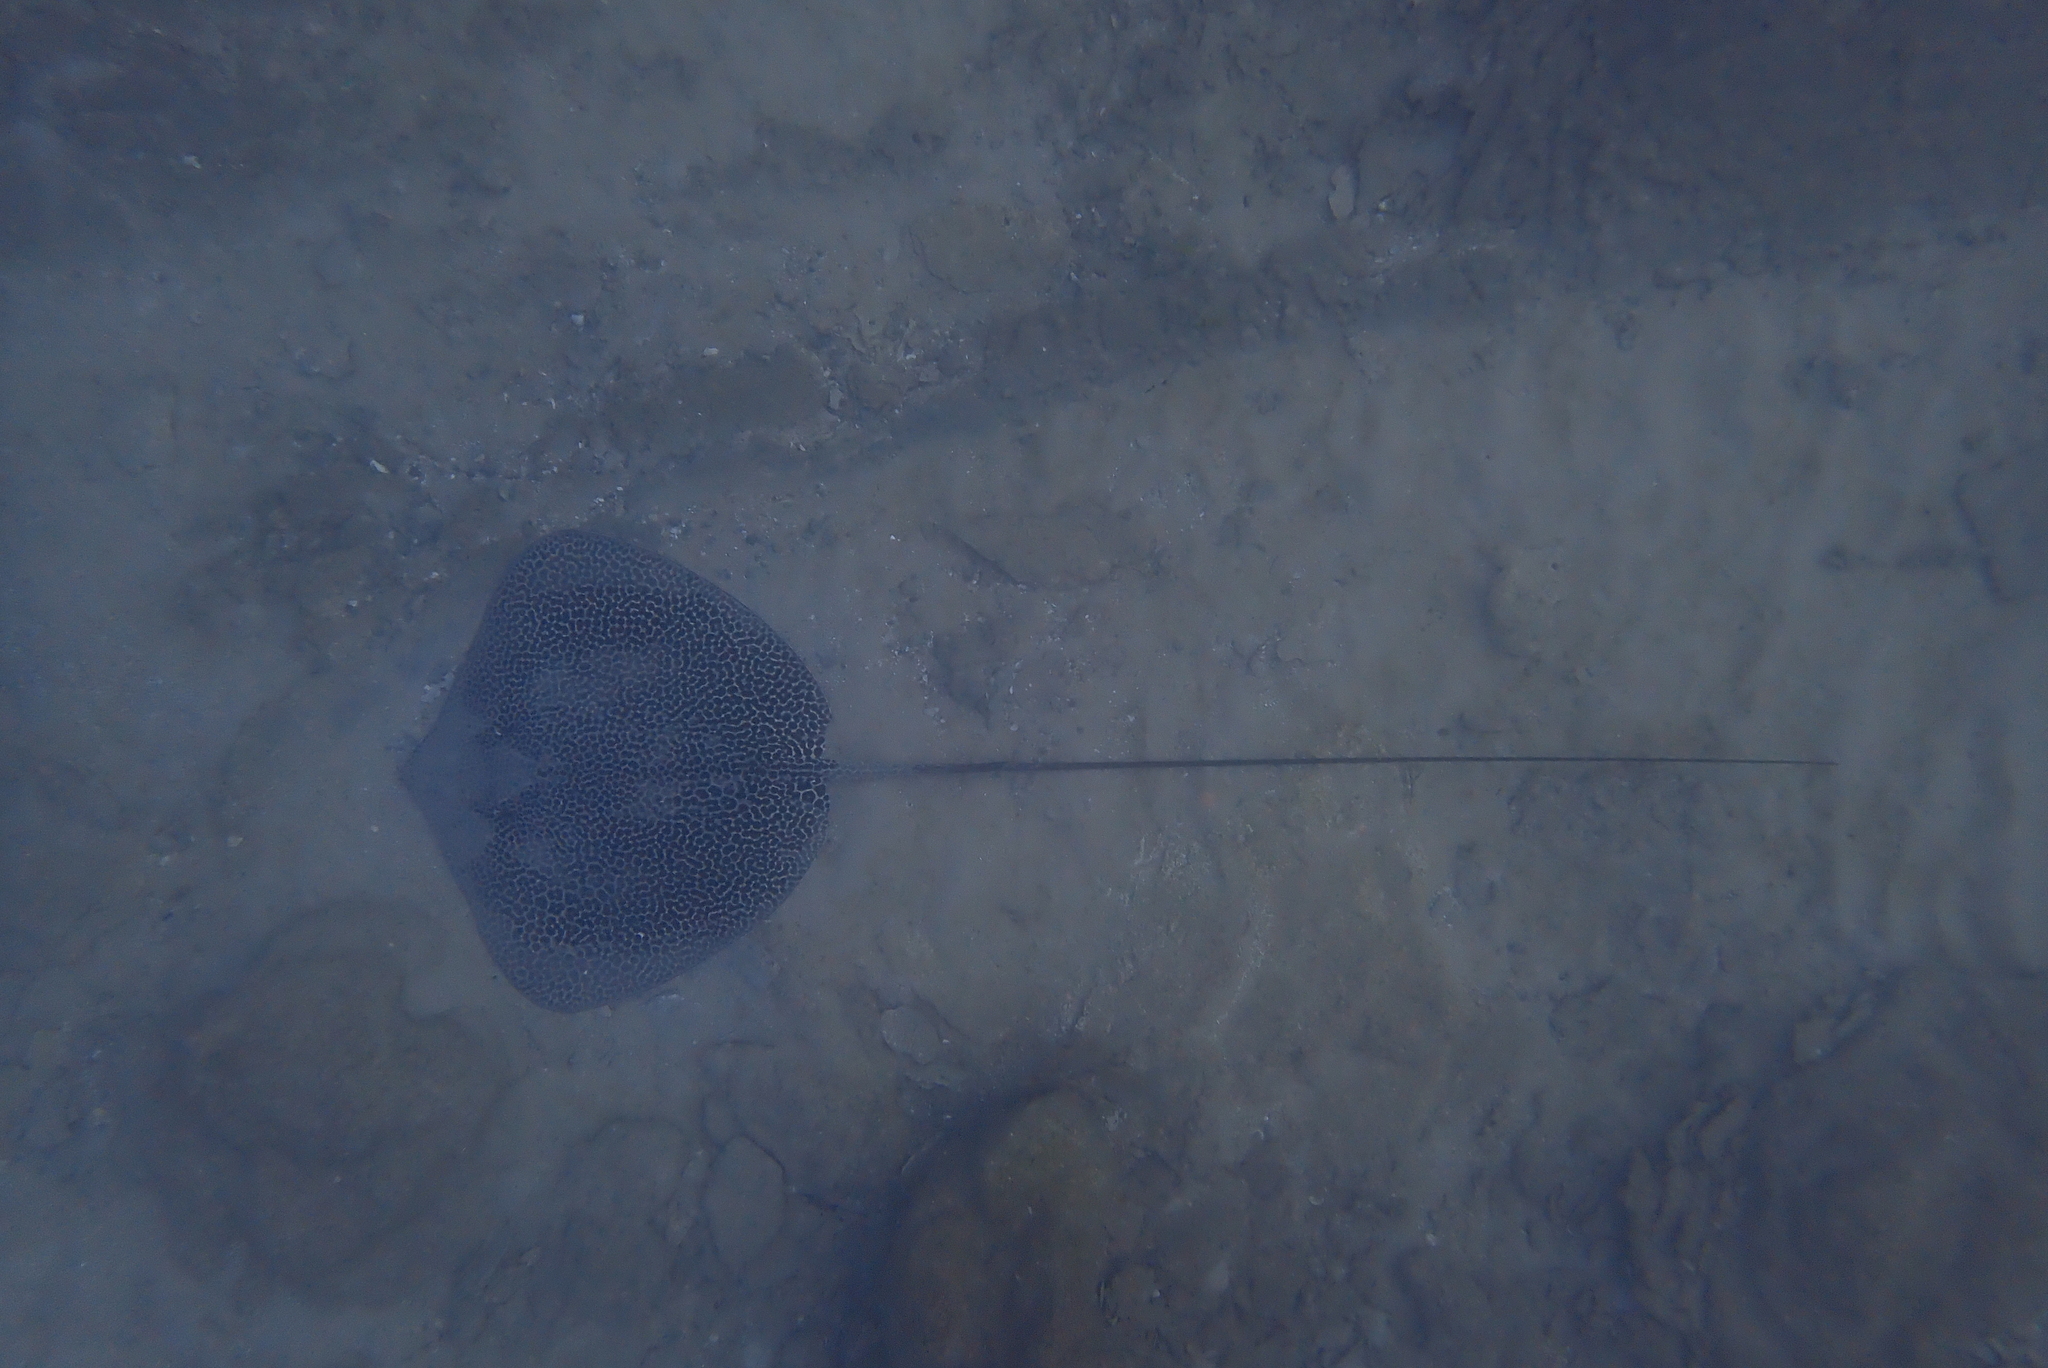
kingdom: Animalia
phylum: Chordata
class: Elasmobranchii
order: Myliobatiformes
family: Dasyatidae
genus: Himantura
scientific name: Himantura uarnak
